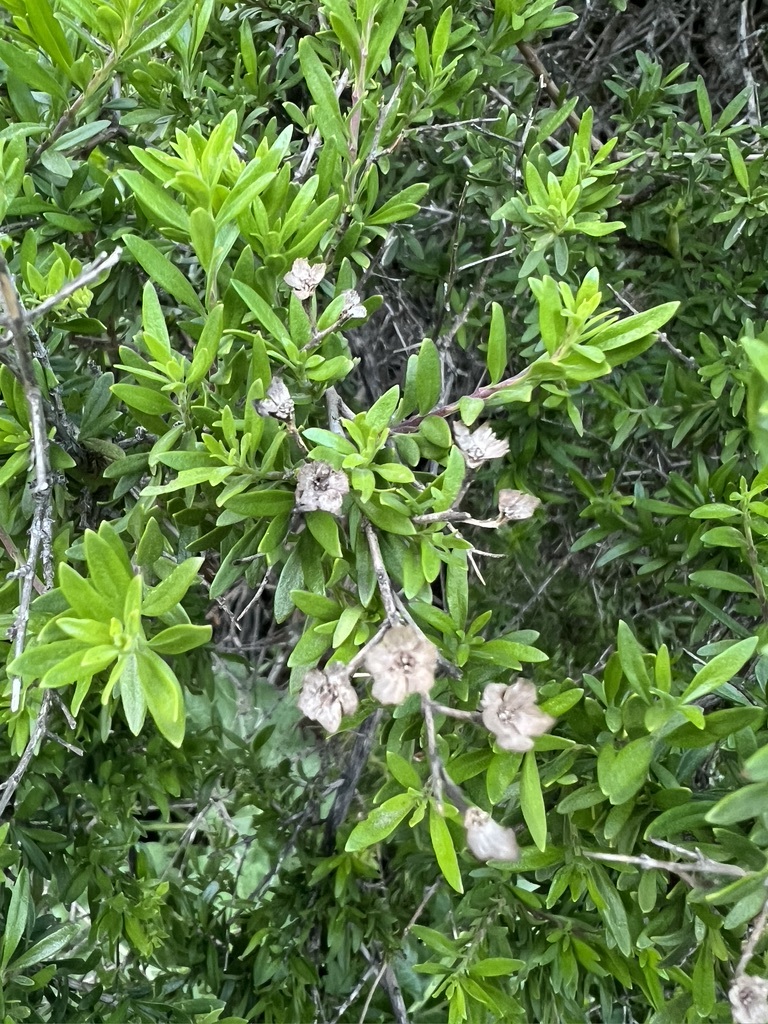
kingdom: Plantae
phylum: Tracheophyta
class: Magnoliopsida
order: Lamiales
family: Plantaginaceae
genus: Keckiella
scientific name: Keckiella antirrhinoides
